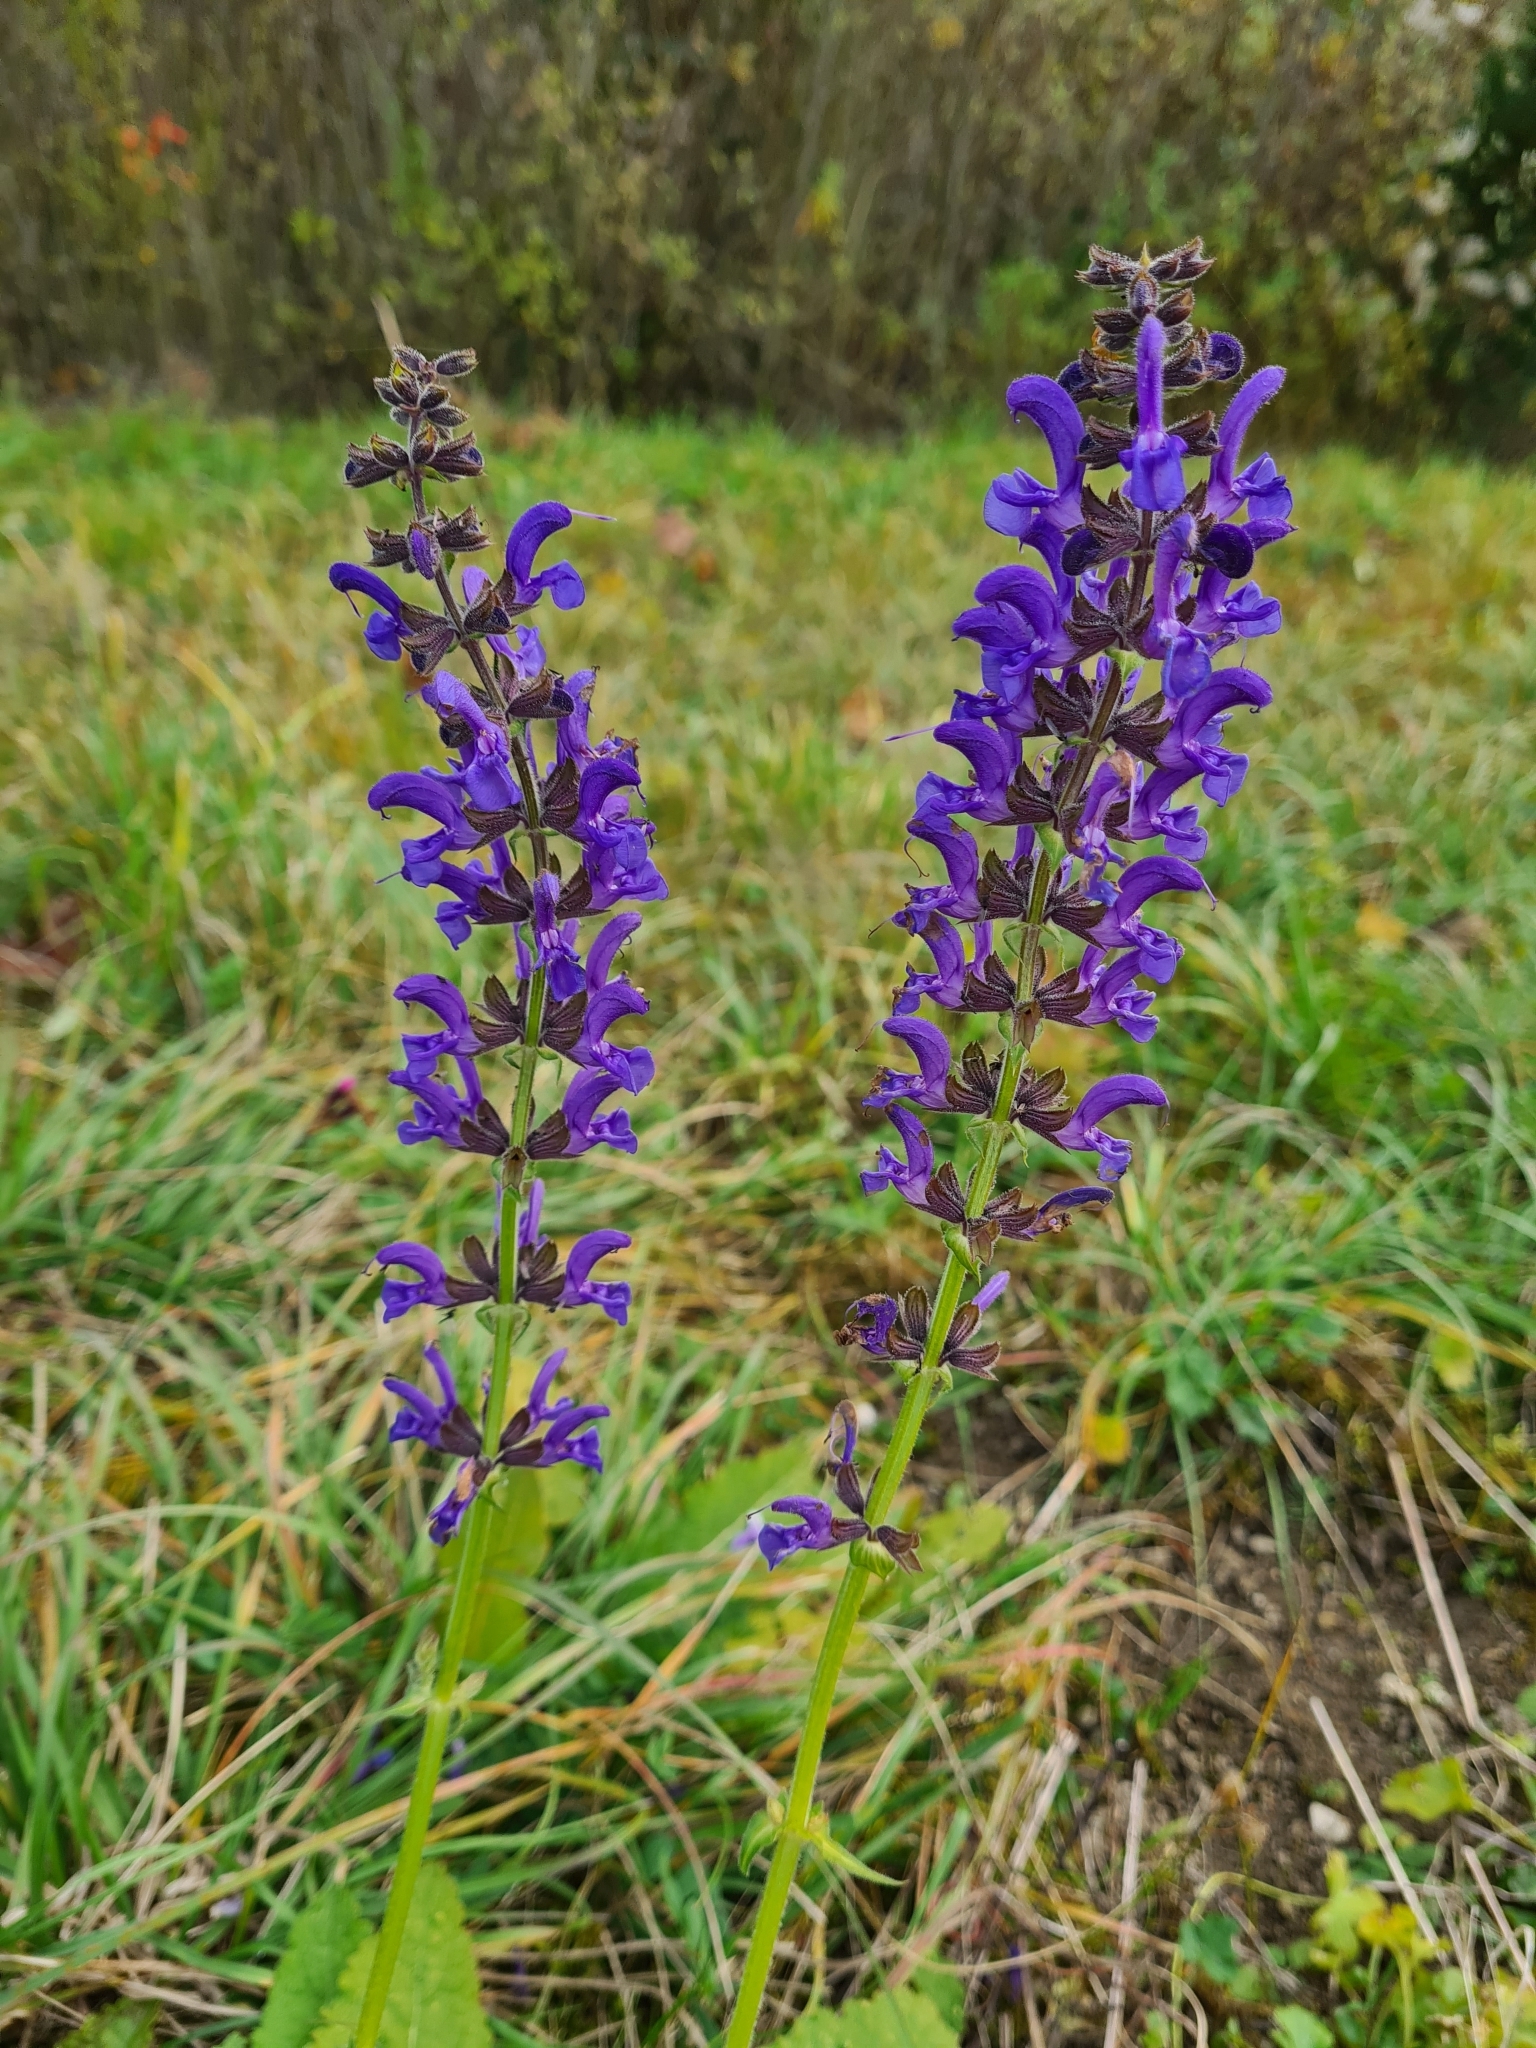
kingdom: Plantae
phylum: Tracheophyta
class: Magnoliopsida
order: Lamiales
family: Lamiaceae
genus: Salvia
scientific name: Salvia pratensis
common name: Meadow sage
